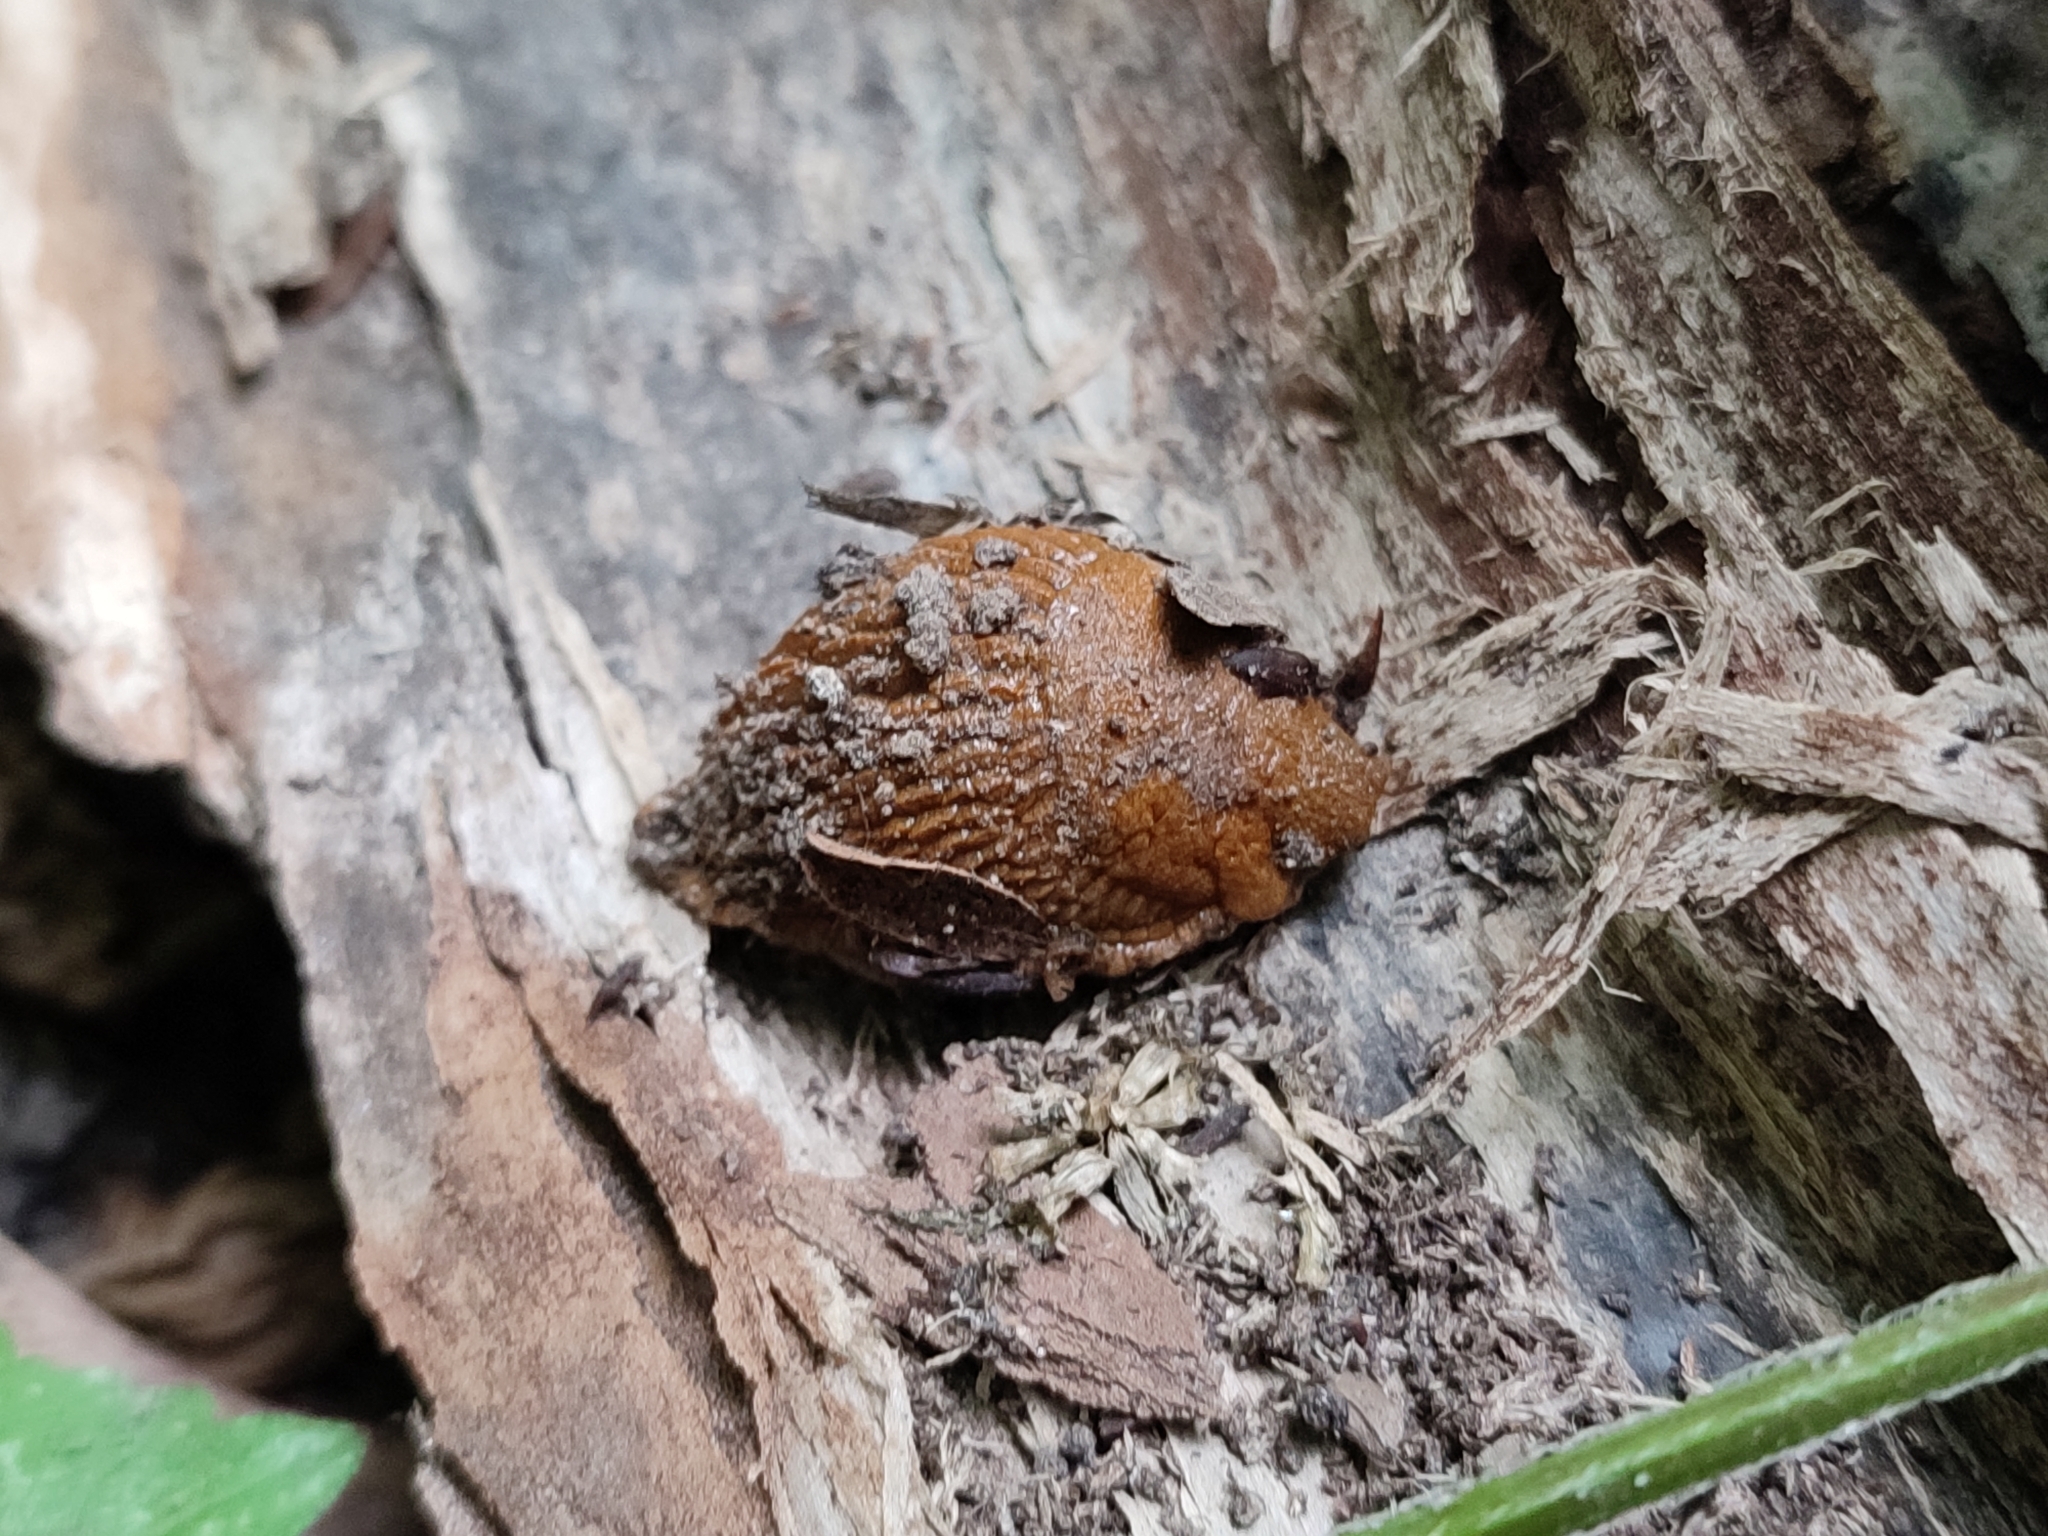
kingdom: Animalia
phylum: Mollusca
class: Gastropoda
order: Stylommatophora
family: Arionidae
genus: Arion
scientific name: Arion vulgaris
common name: Lusitanian slug
